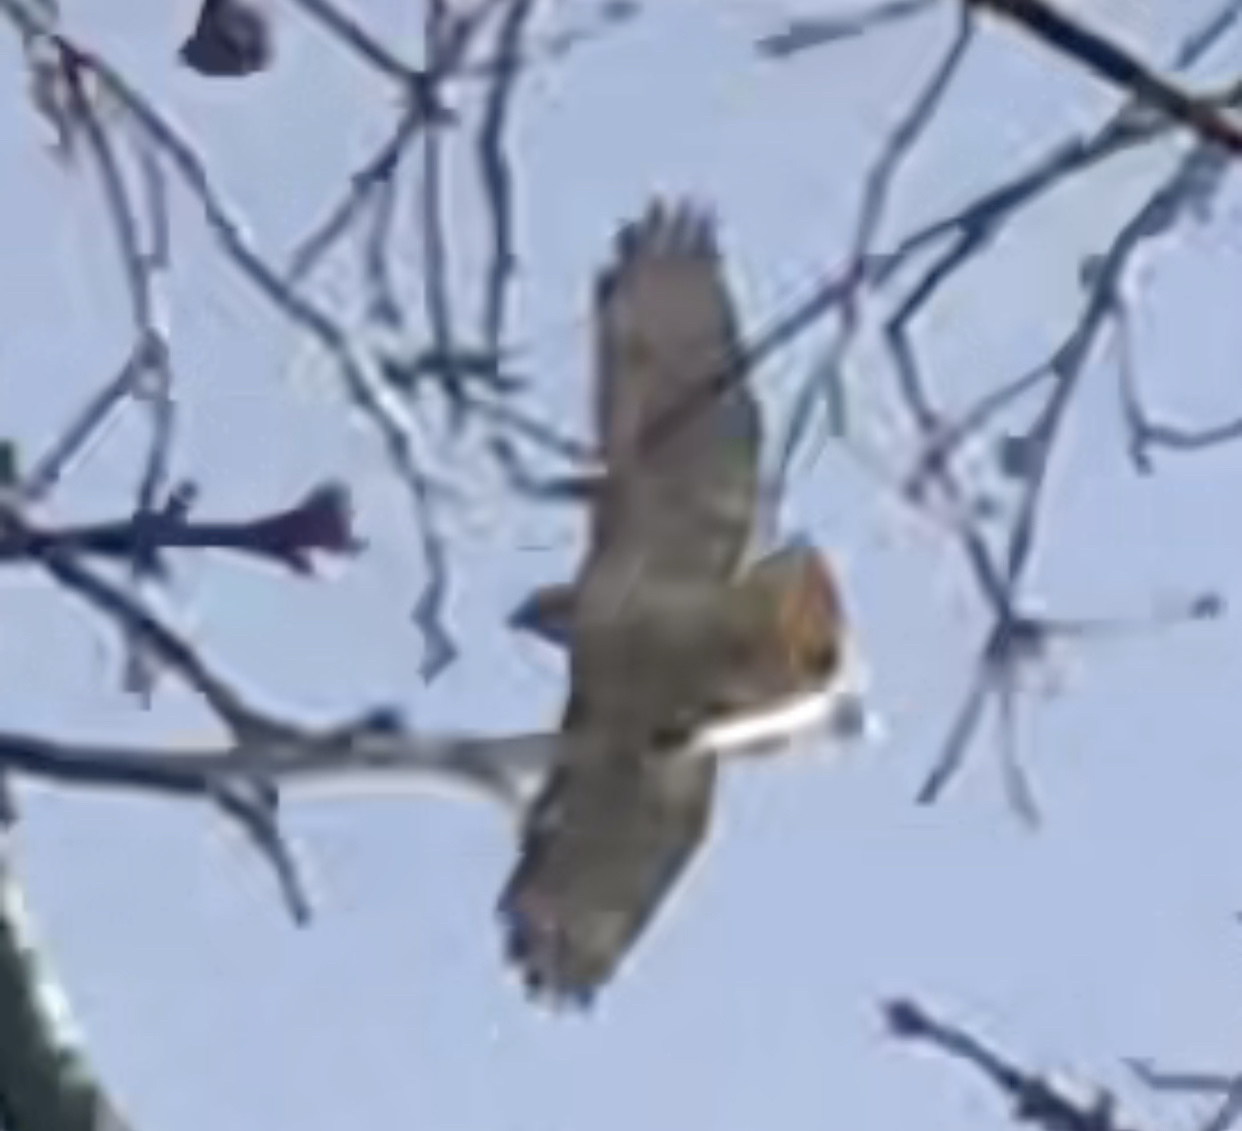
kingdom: Animalia
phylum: Chordata
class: Aves
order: Accipitriformes
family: Accipitridae
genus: Buteo
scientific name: Buteo jamaicensis
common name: Red-tailed hawk
